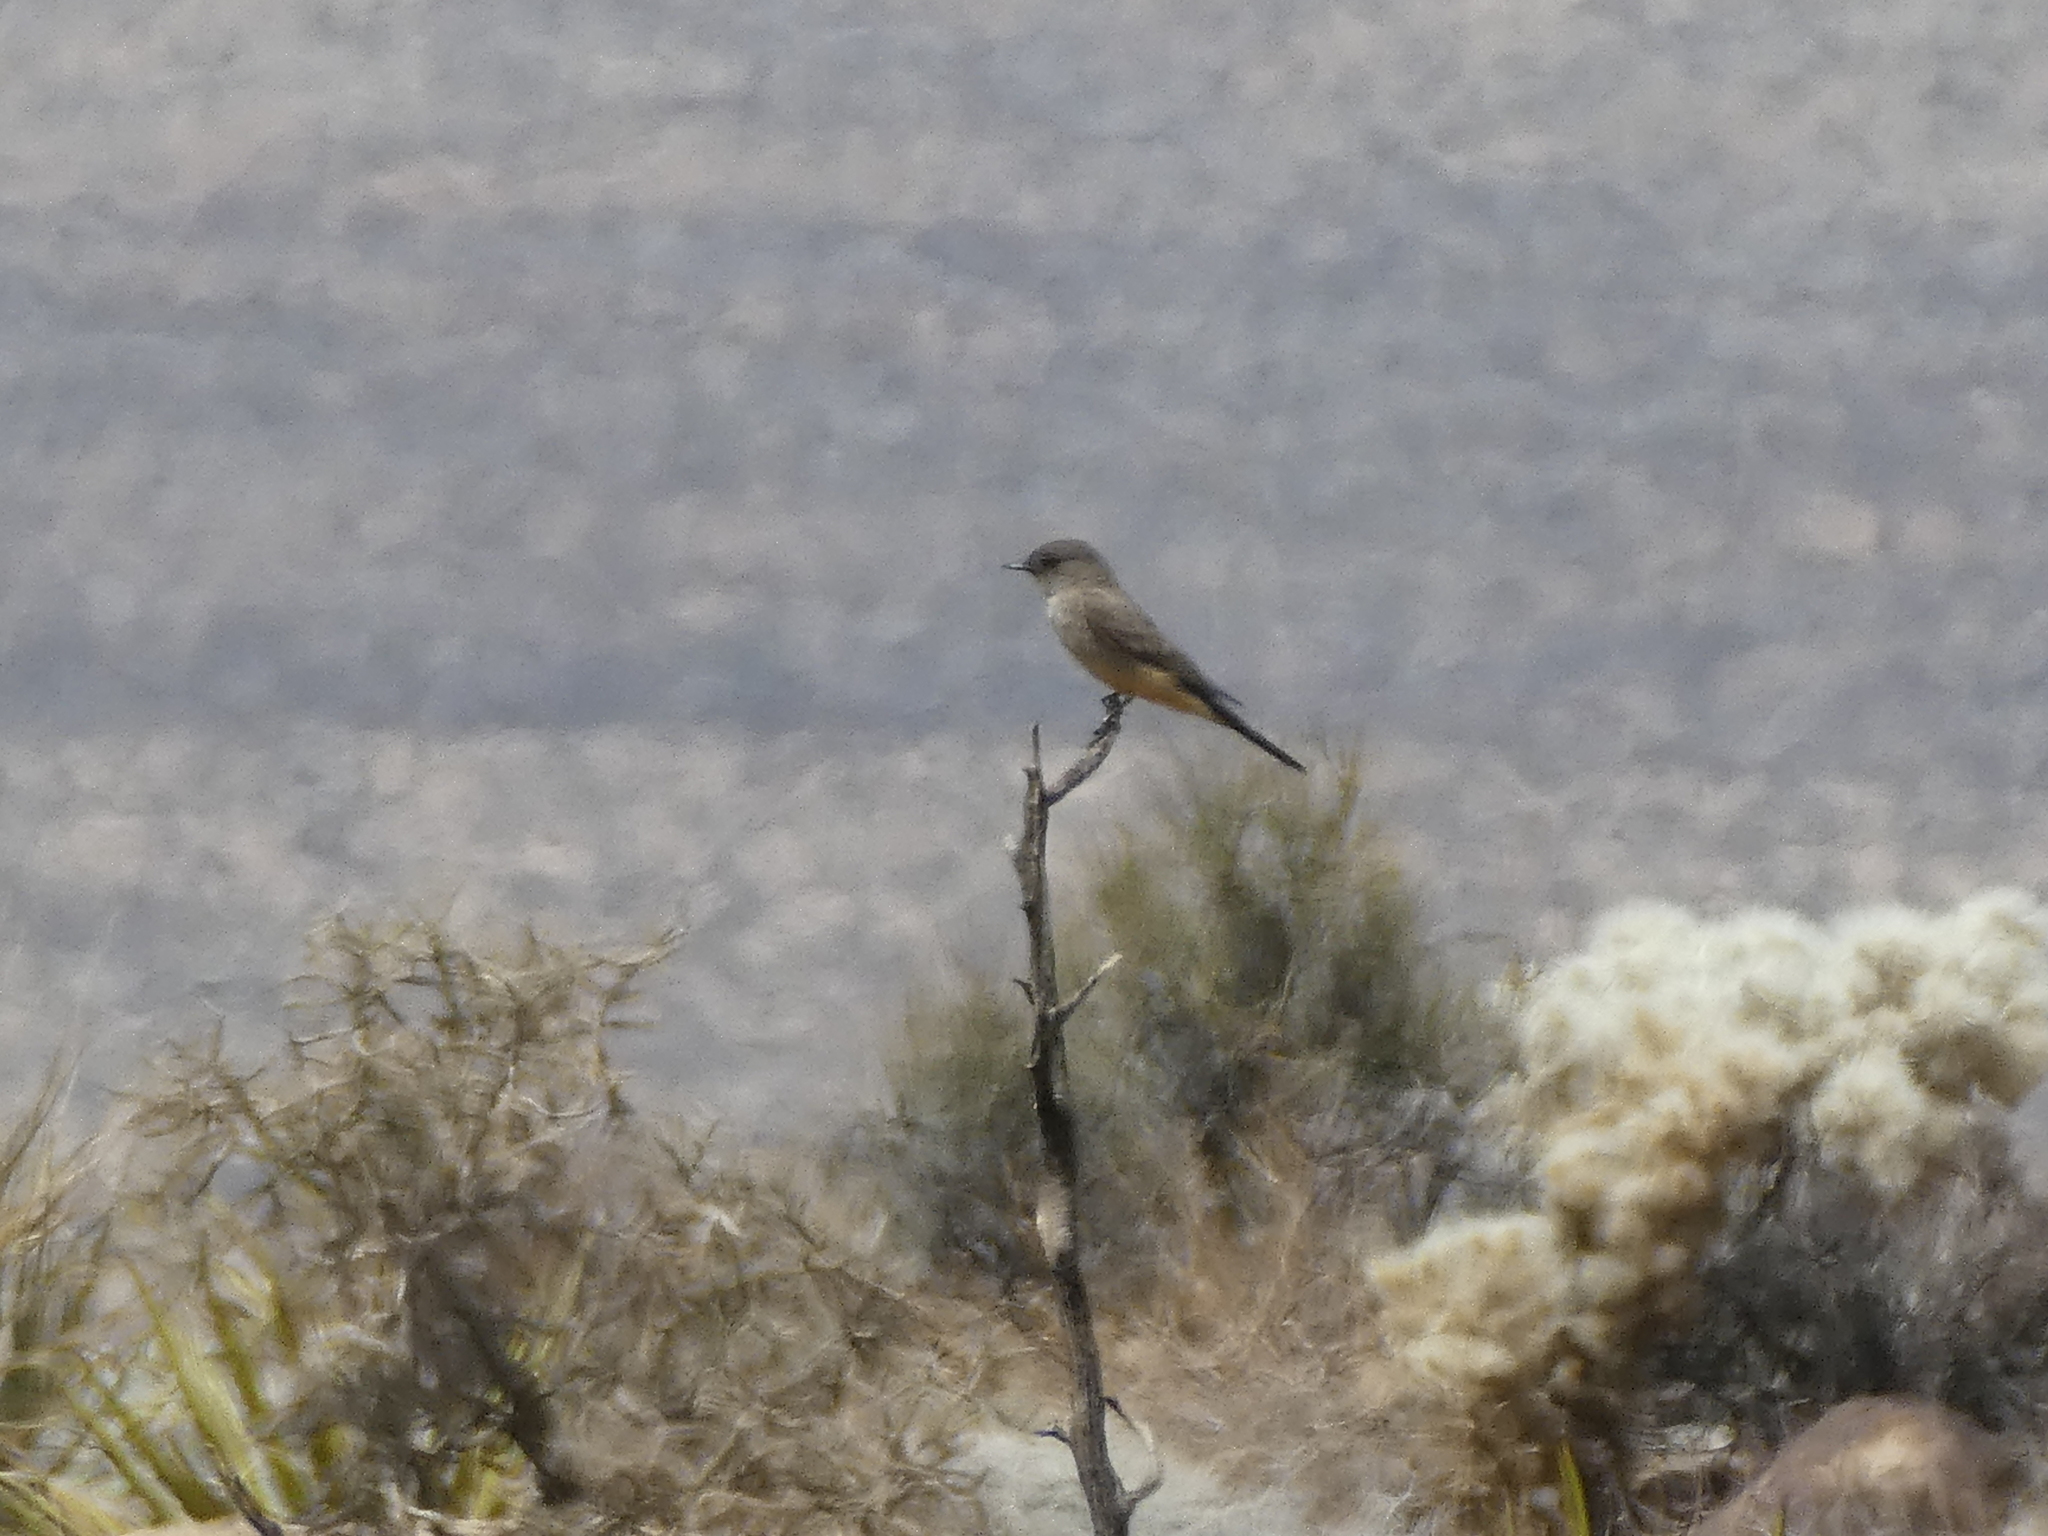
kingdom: Animalia
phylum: Chordata
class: Aves
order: Passeriformes
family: Tyrannidae
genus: Sayornis
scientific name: Sayornis saya
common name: Say's phoebe
